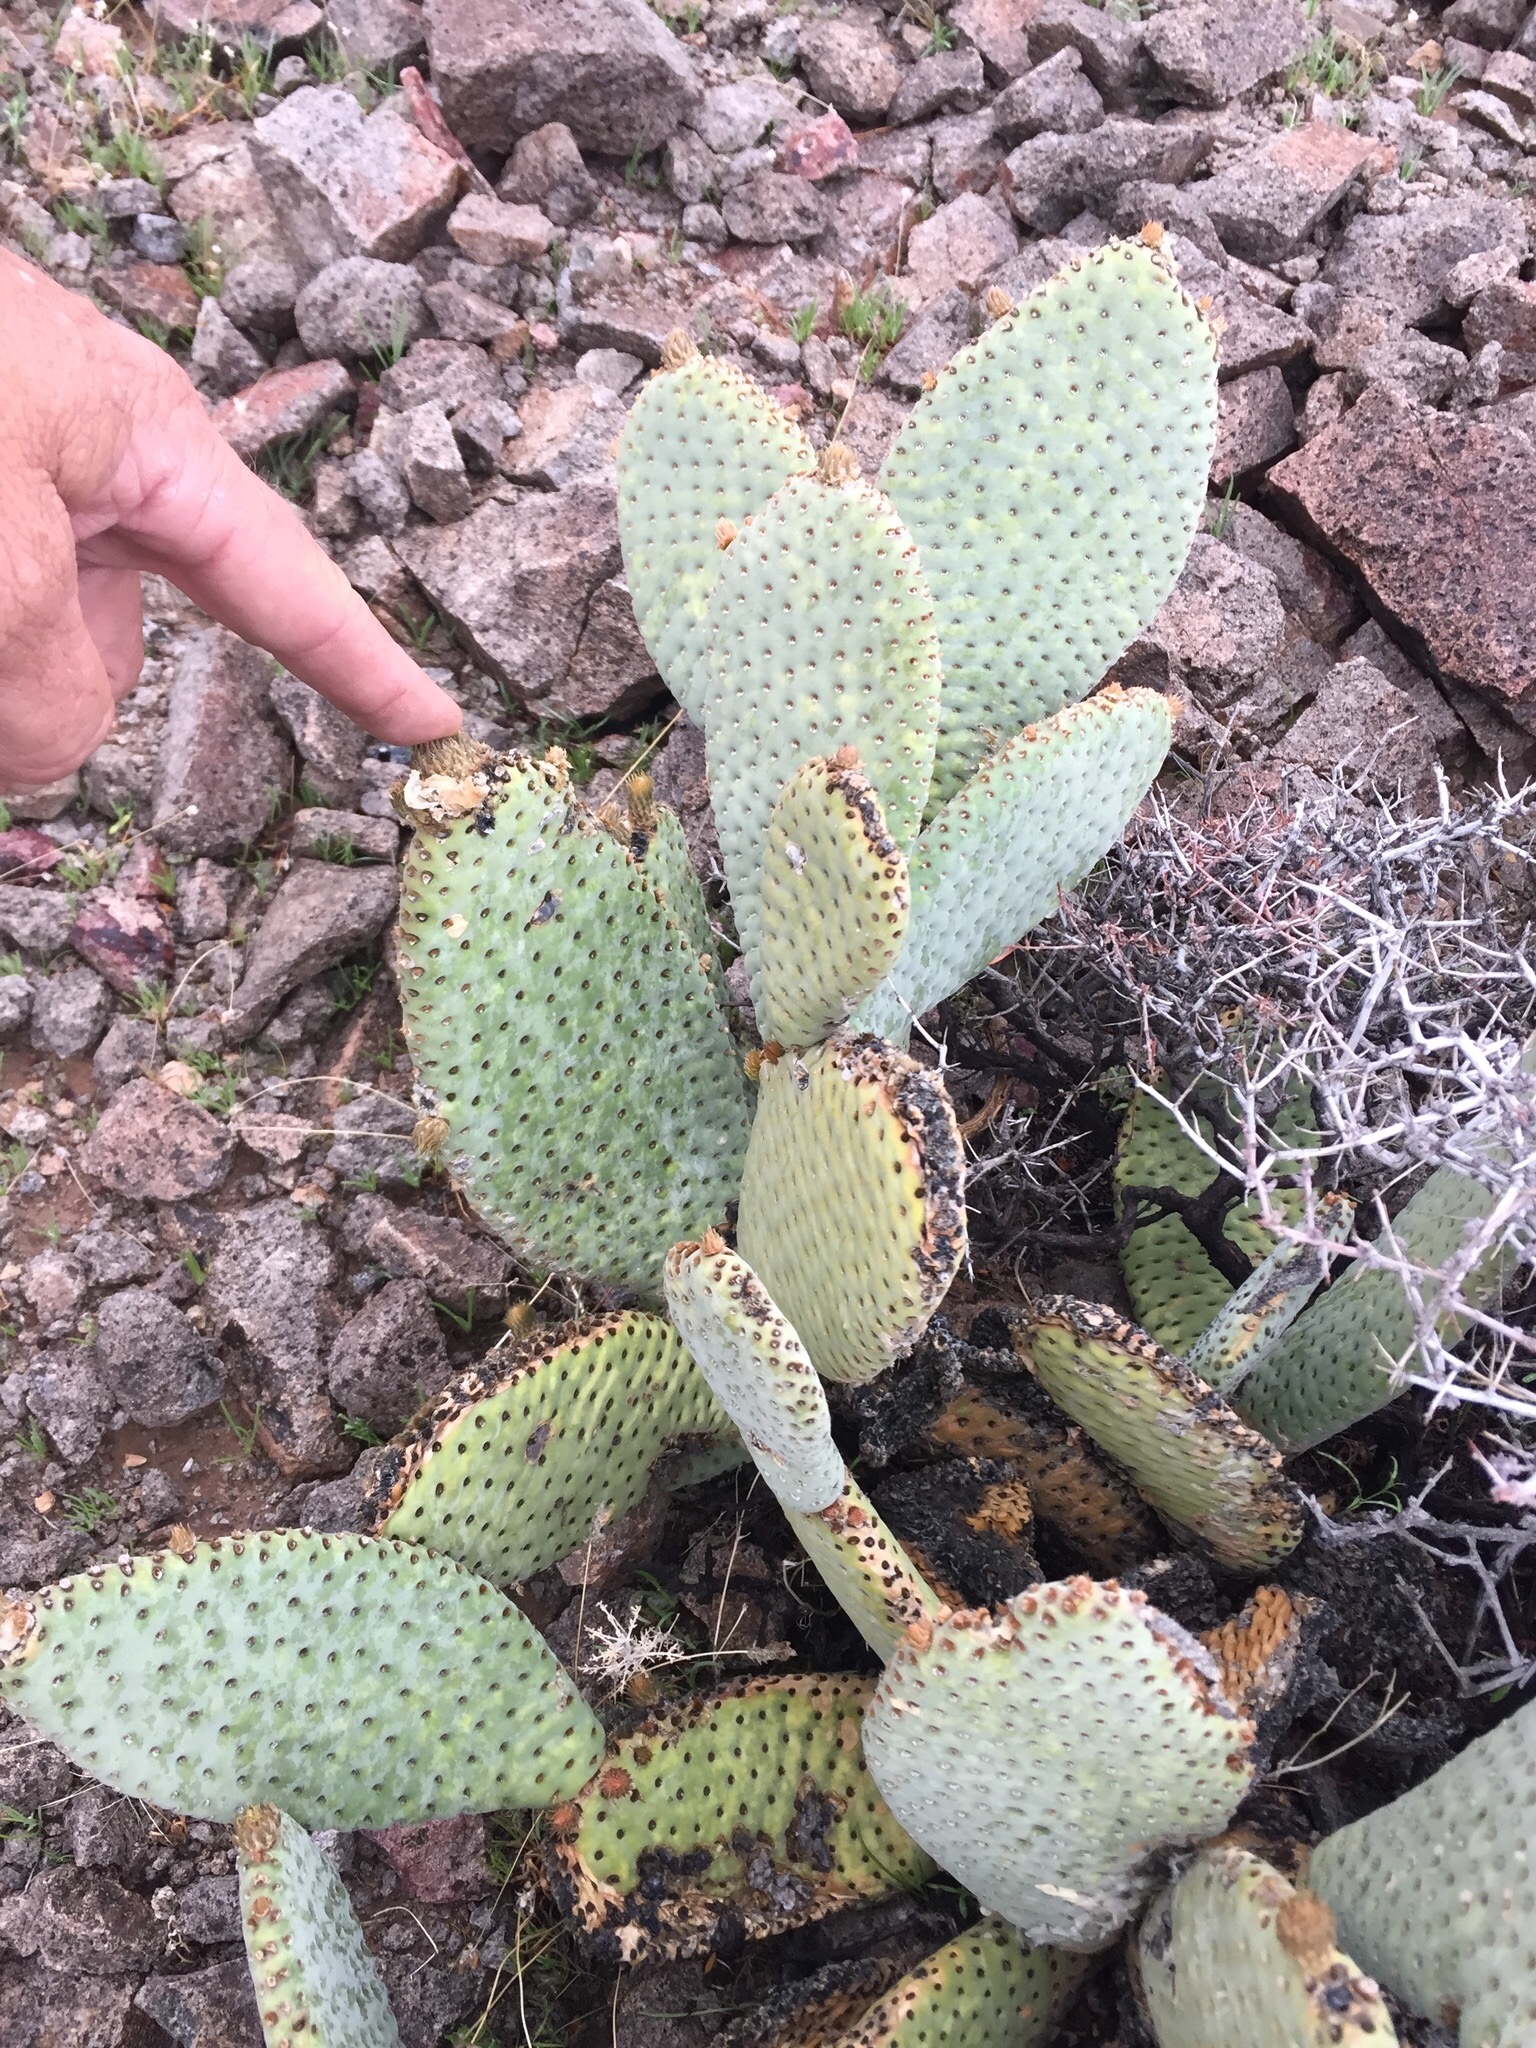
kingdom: Plantae
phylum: Tracheophyta
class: Magnoliopsida
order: Caryophyllales
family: Cactaceae
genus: Opuntia
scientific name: Opuntia basilaris
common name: Beavertail prickly-pear
